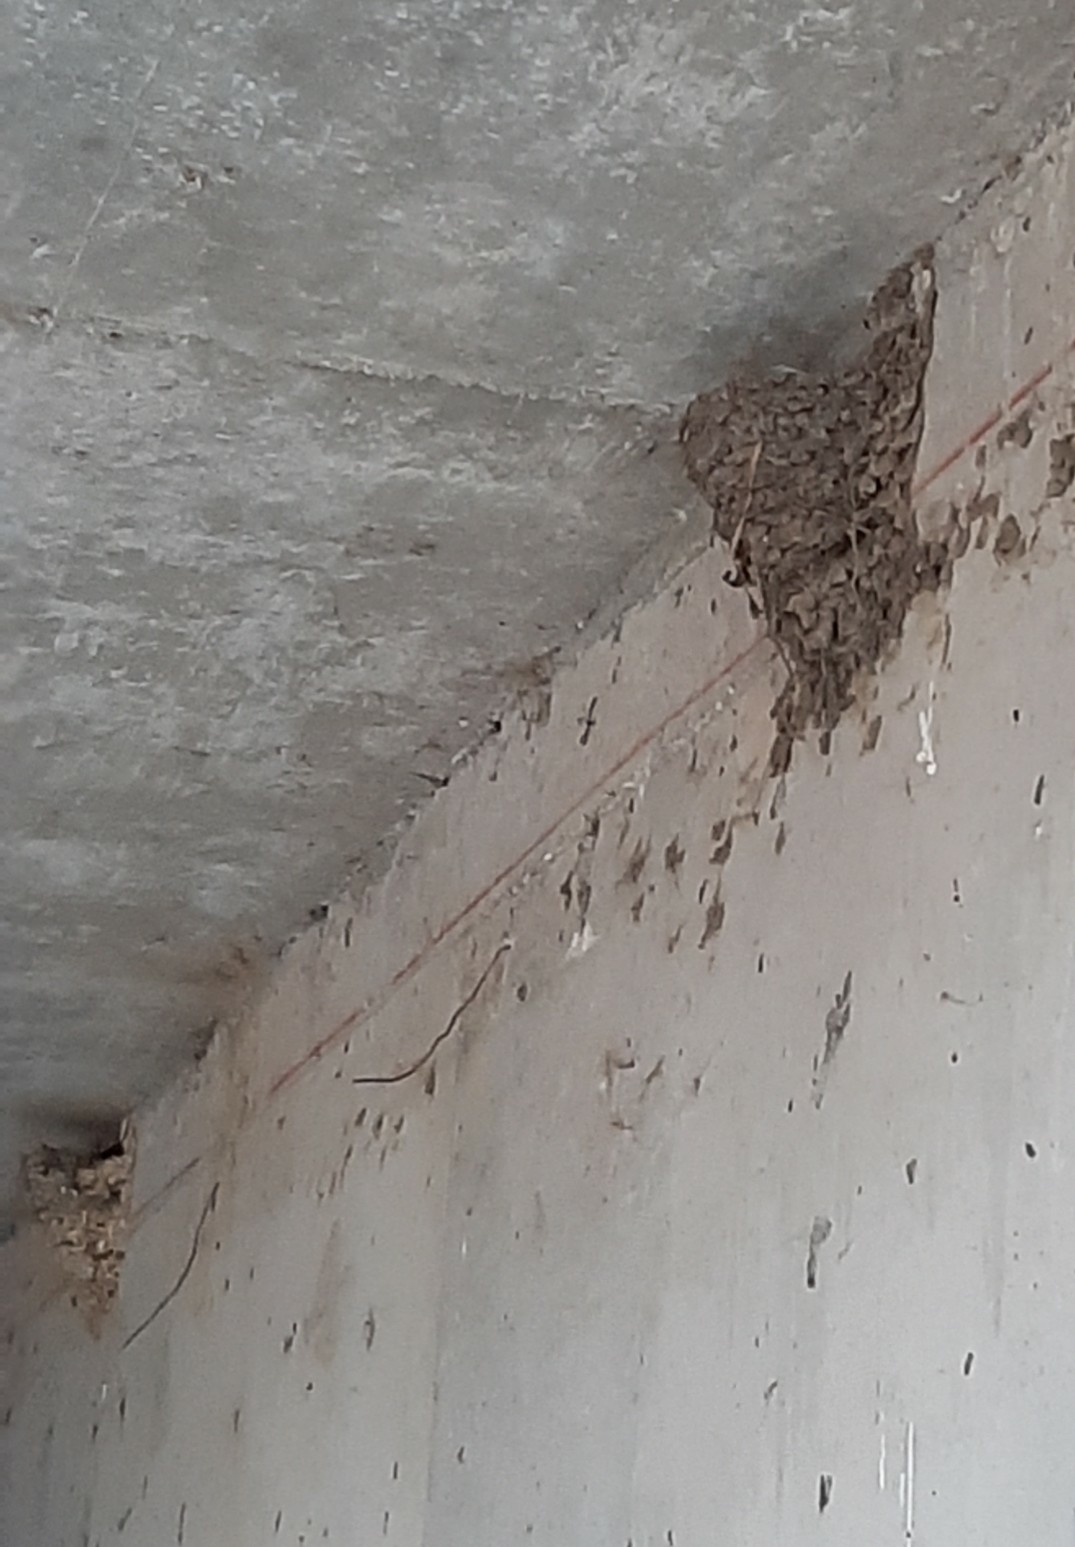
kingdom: Animalia
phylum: Chordata
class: Aves
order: Passeriformes
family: Hirundinidae
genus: Hirundo
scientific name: Hirundo rustica
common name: Barn swallow
